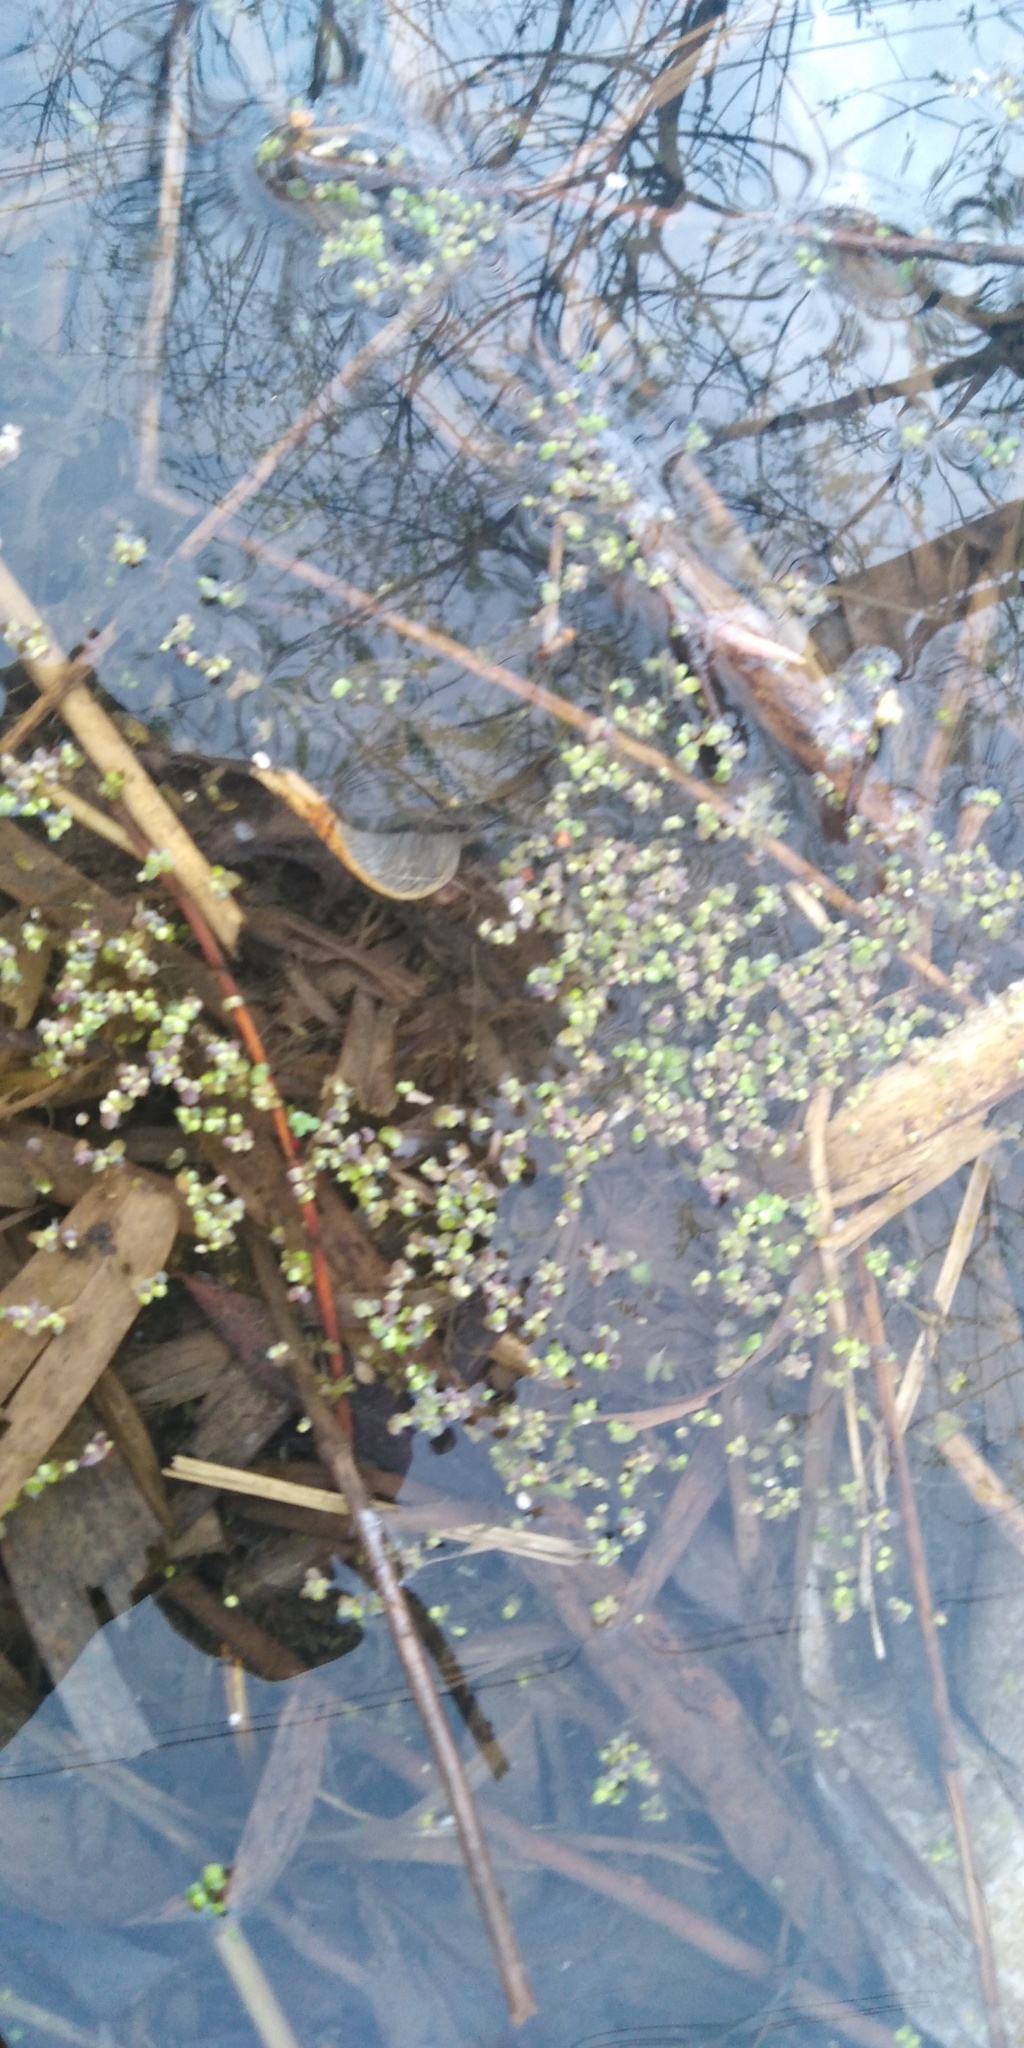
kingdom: Plantae
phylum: Tracheophyta
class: Liliopsida
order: Alismatales
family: Araceae
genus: Lemna
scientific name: Lemna minor
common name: Common duckweed
